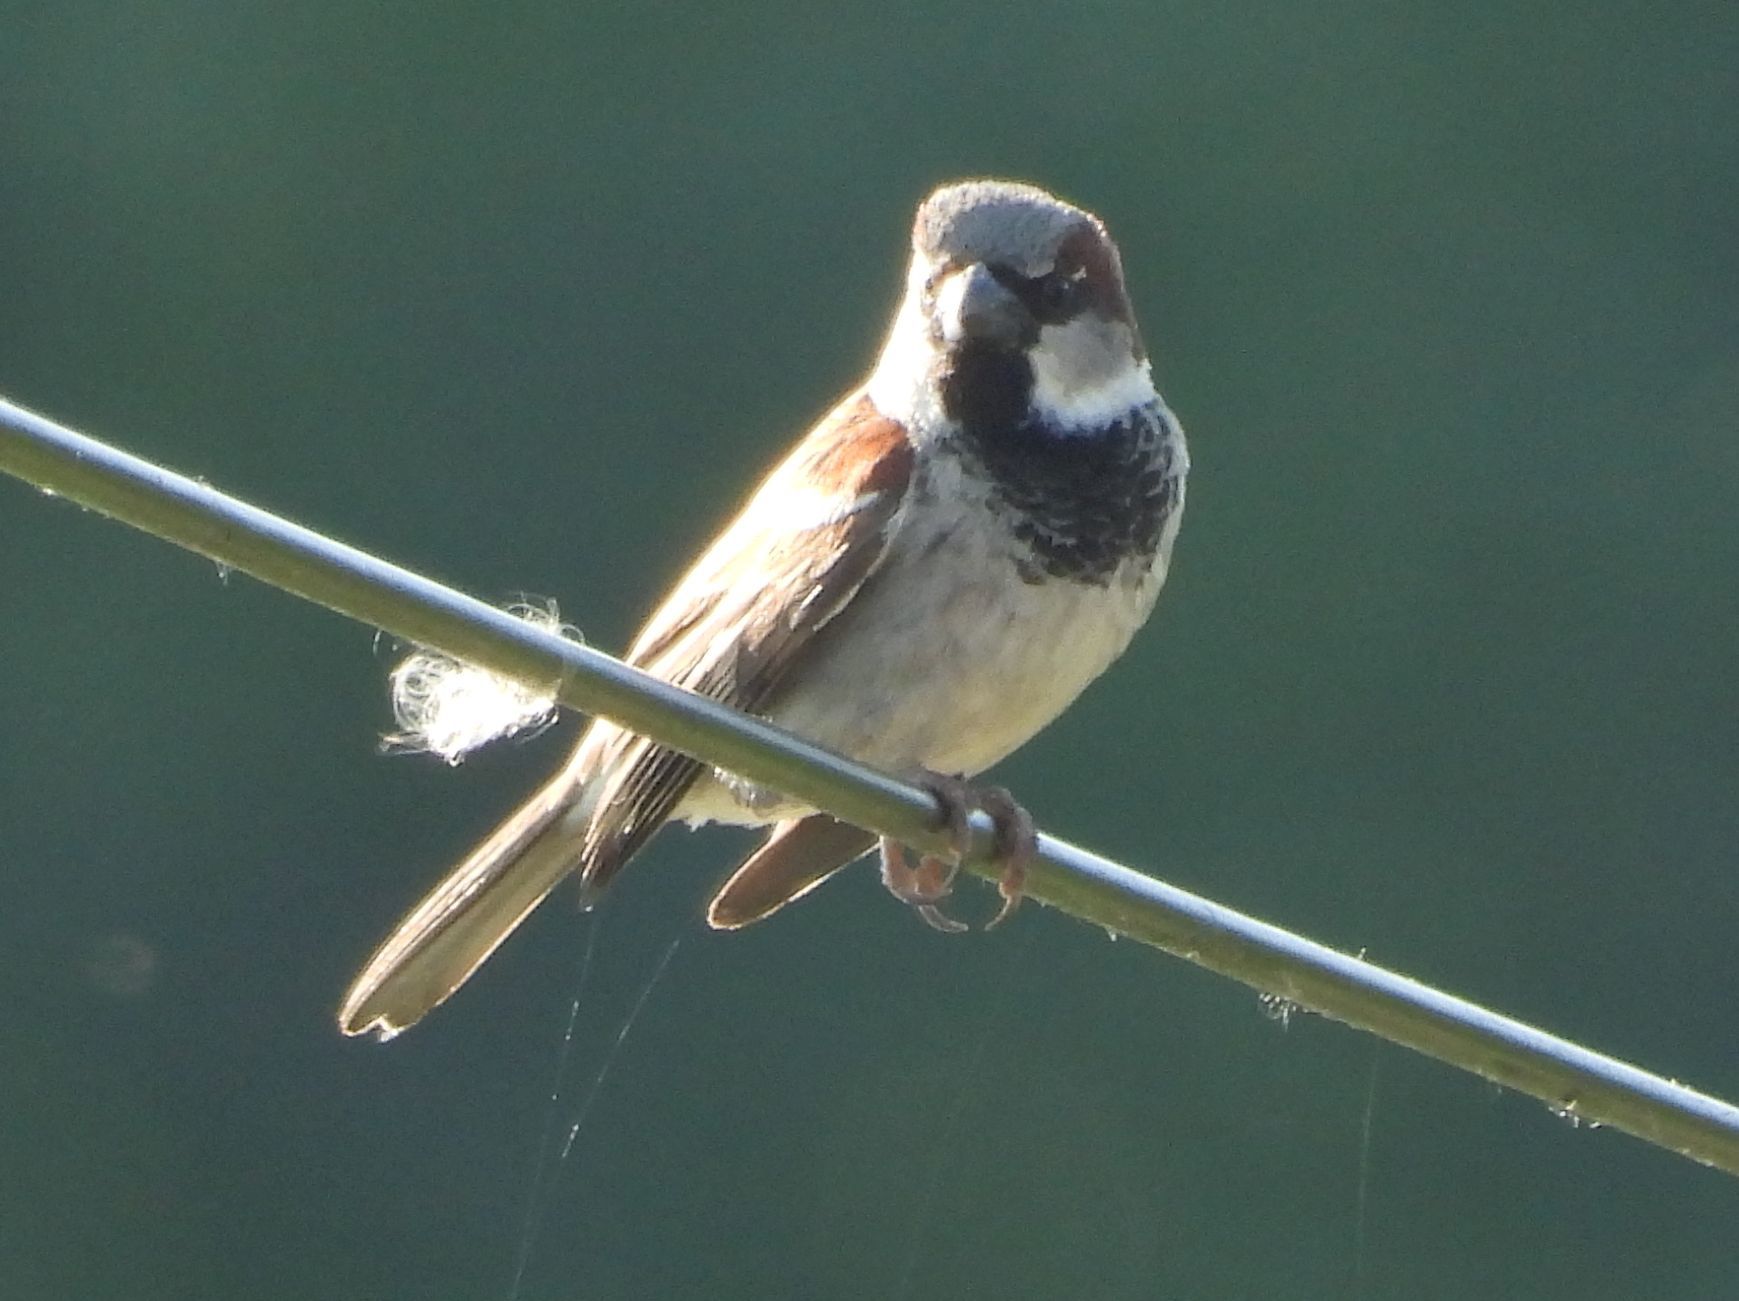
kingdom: Animalia
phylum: Chordata
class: Aves
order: Passeriformes
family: Passeridae
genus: Passer
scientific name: Passer domesticus
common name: House sparrow
